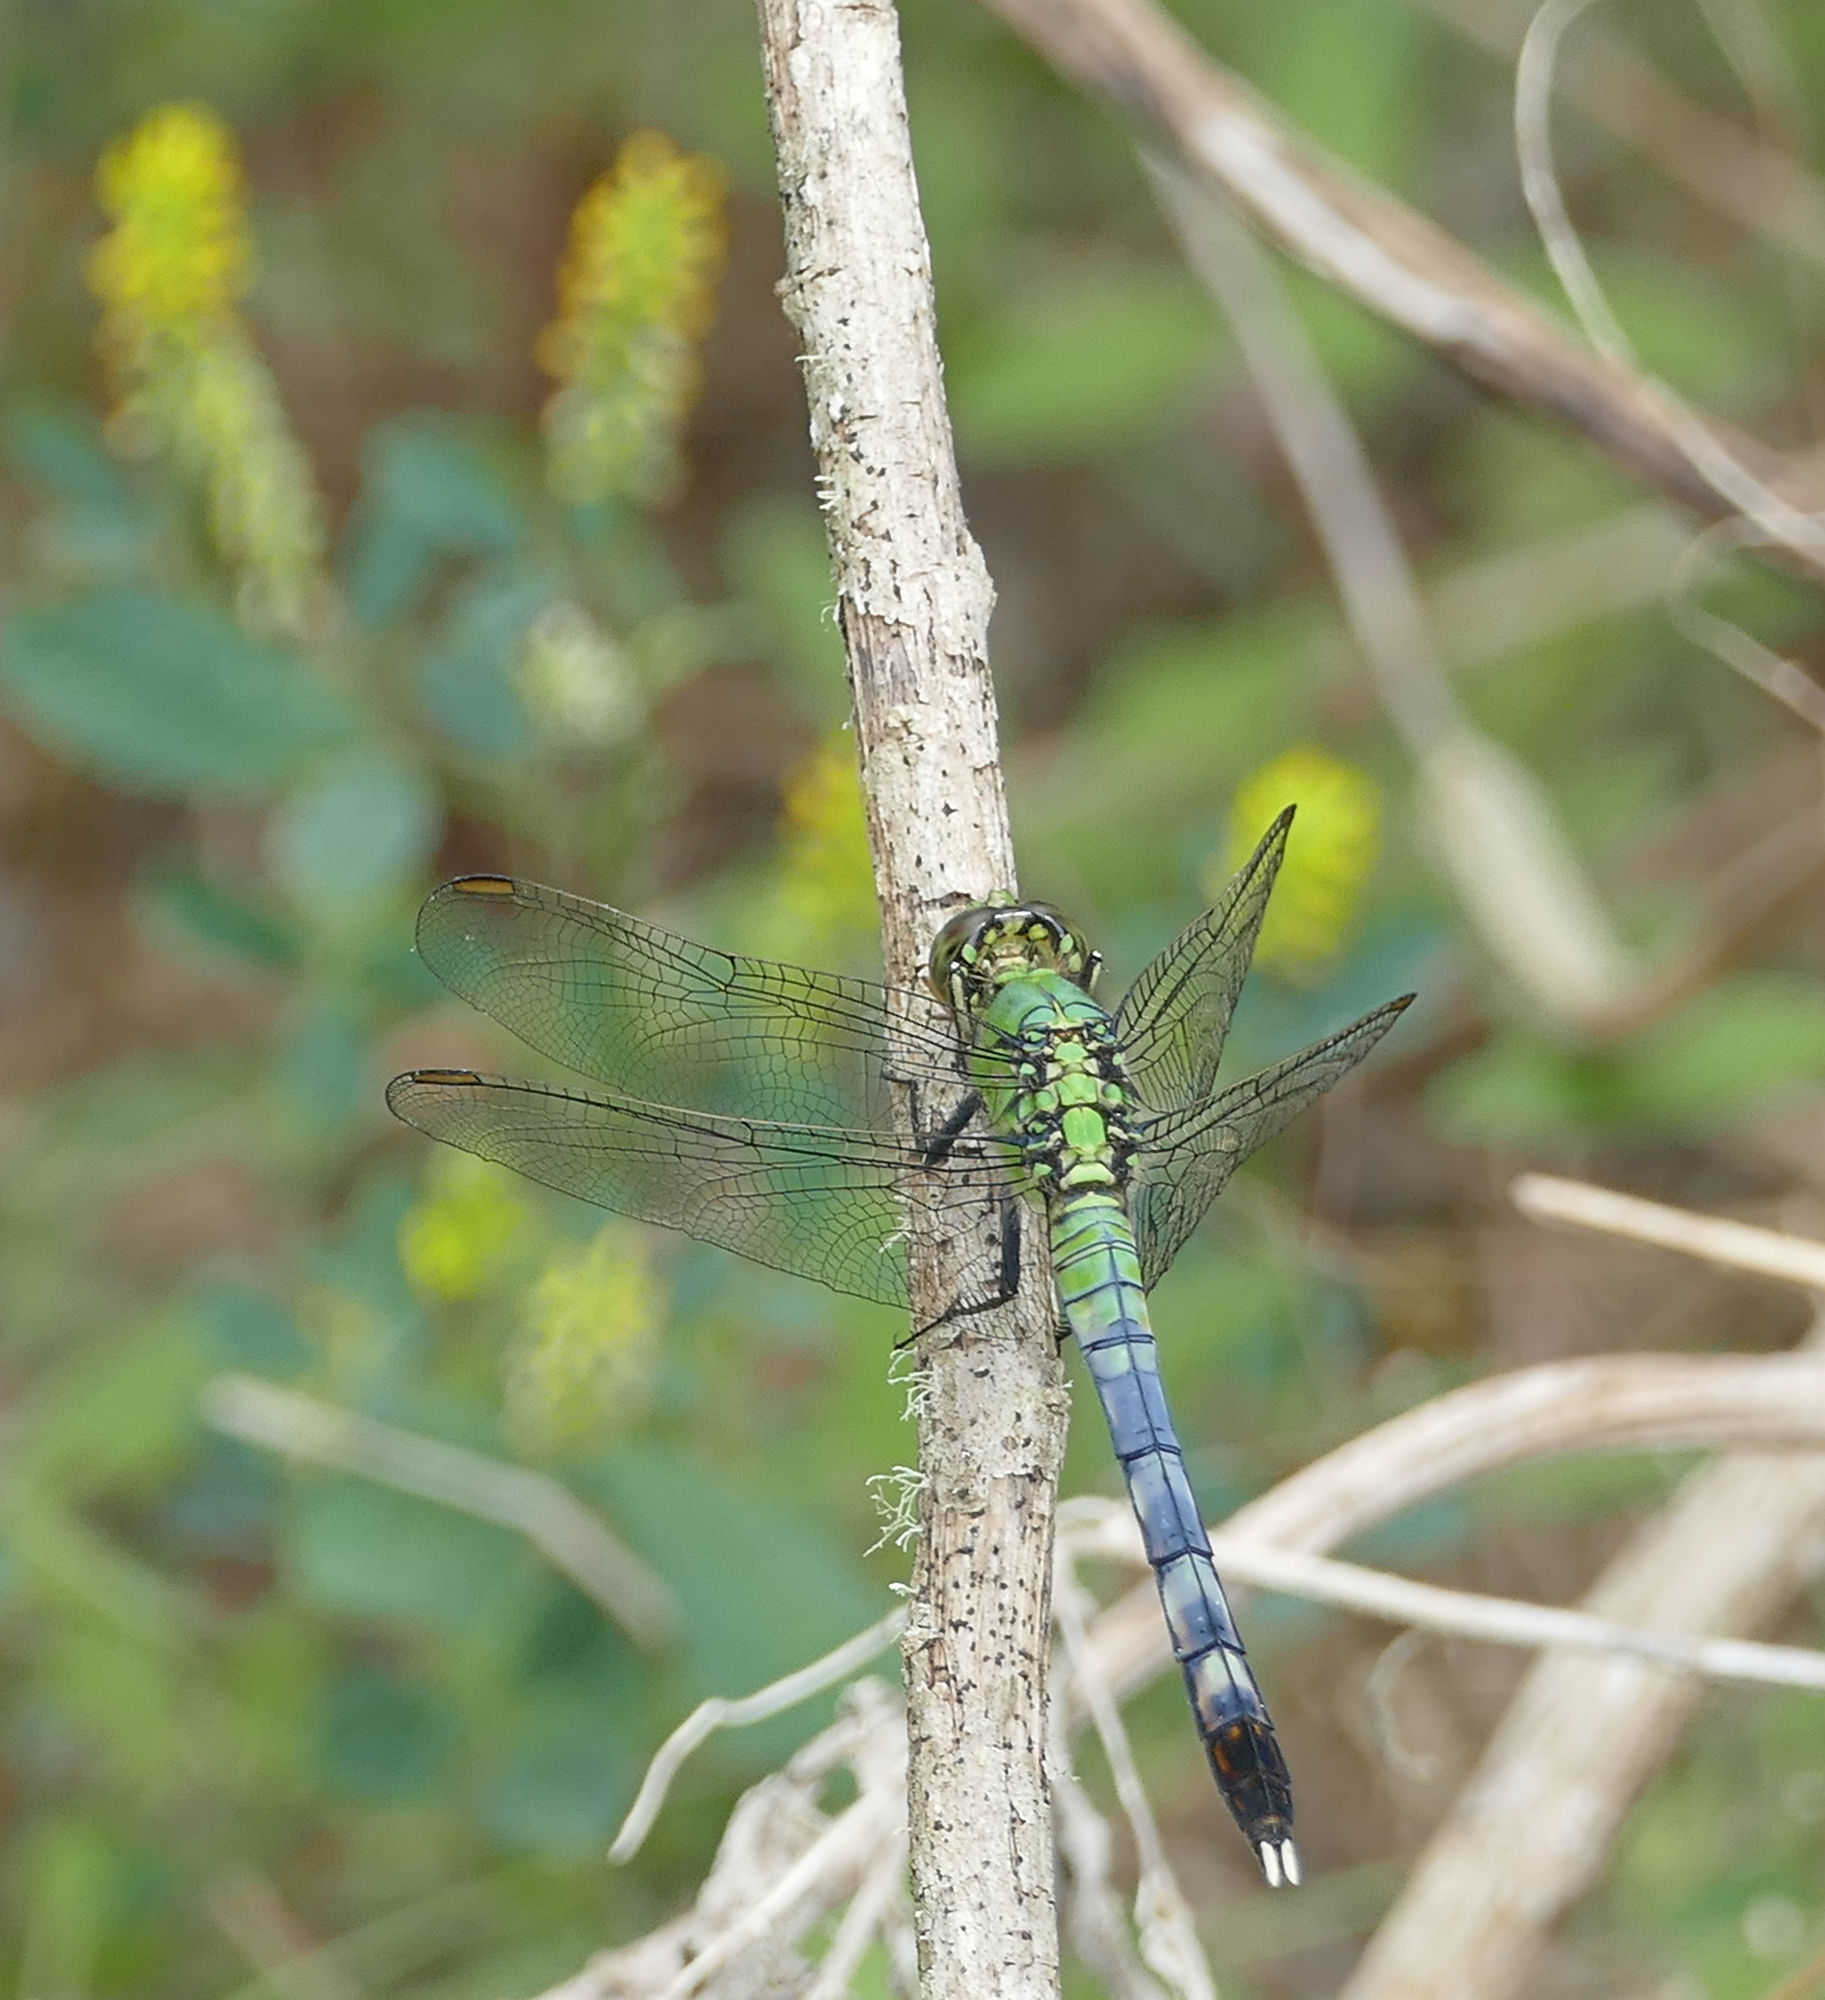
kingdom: Animalia
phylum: Arthropoda
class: Insecta
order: Odonata
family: Libellulidae
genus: Erythemis
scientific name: Erythemis simplicicollis
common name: Eastern pondhawk
